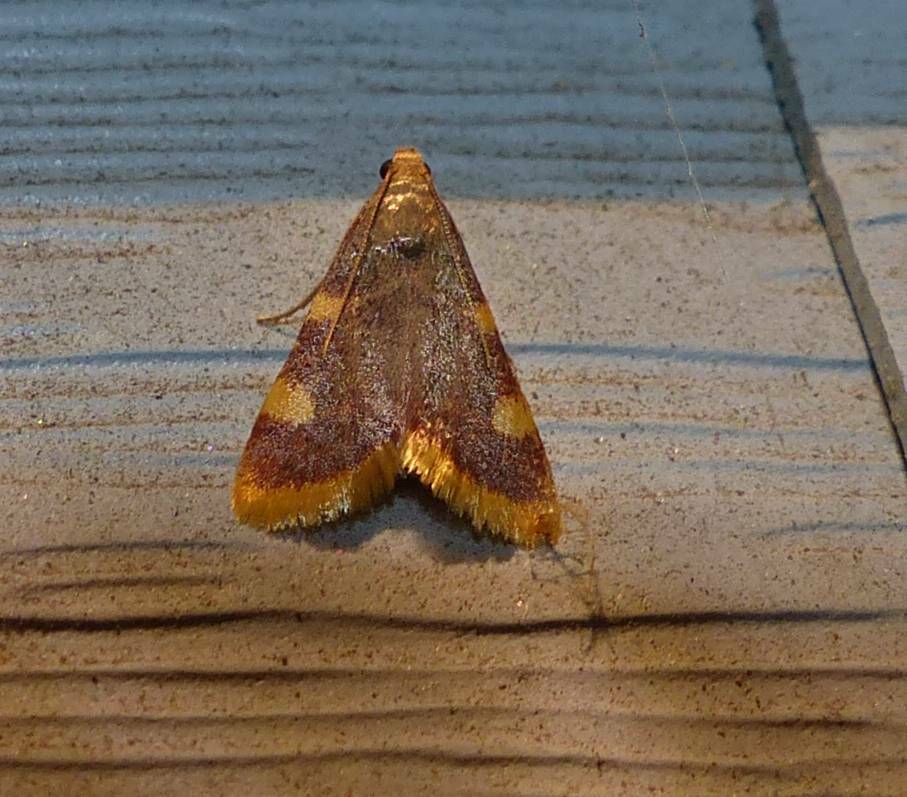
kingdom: Animalia
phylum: Arthropoda
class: Insecta
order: Lepidoptera
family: Pyralidae
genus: Hypsopygia
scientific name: Hypsopygia costalis
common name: Gold triangle
